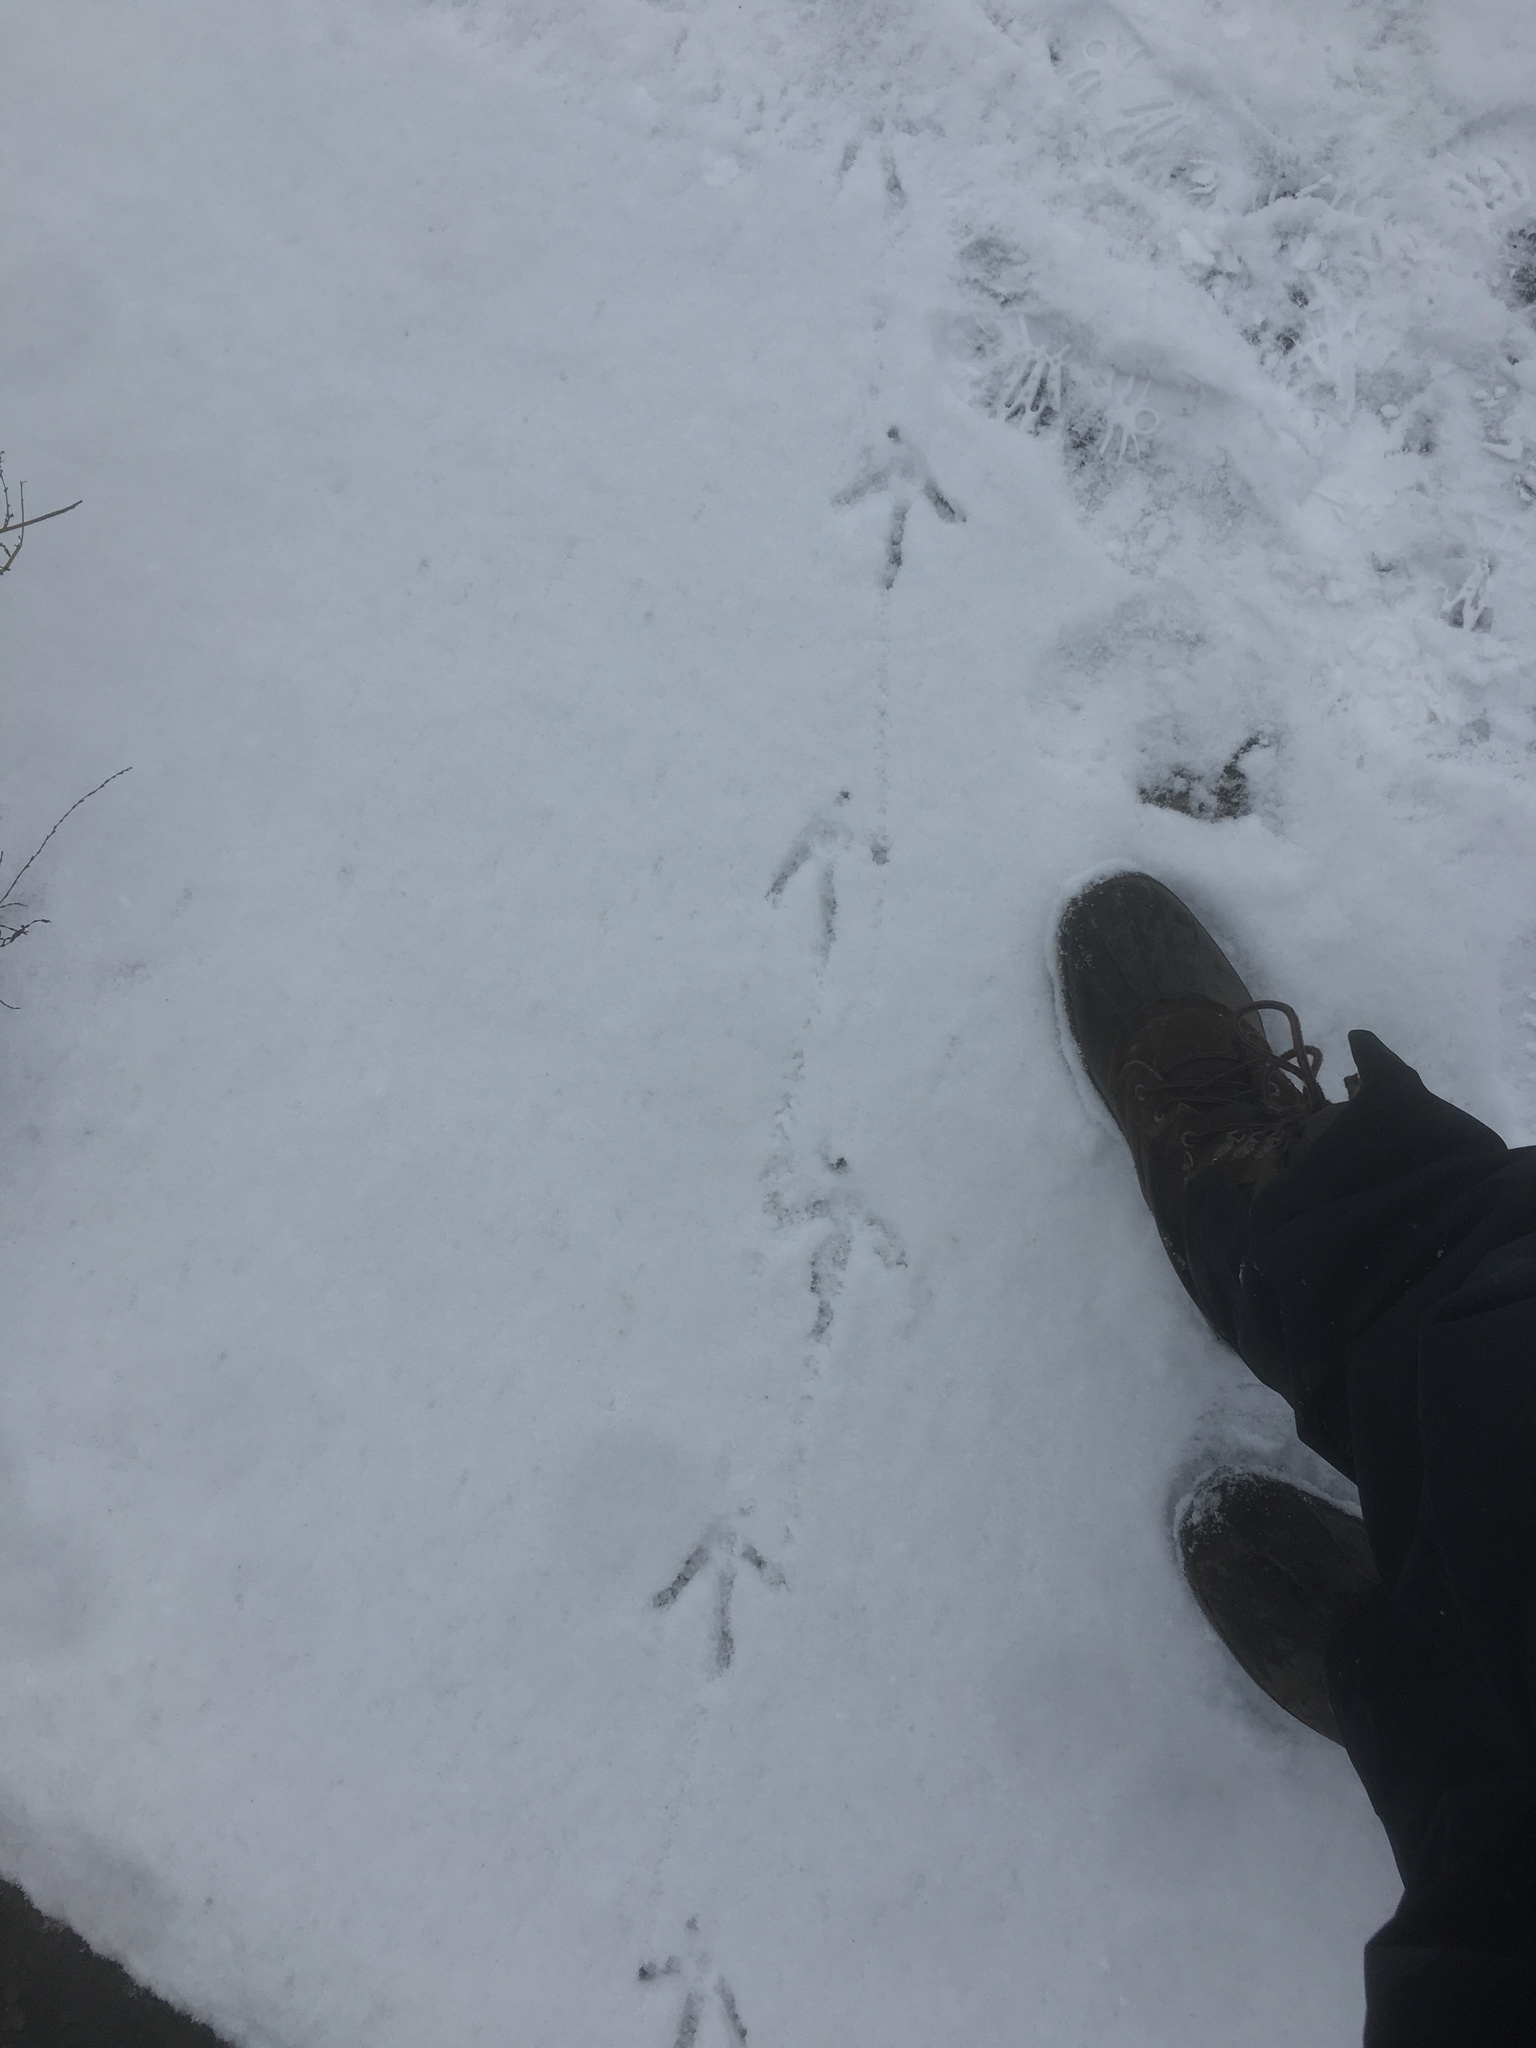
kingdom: Animalia
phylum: Chordata
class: Aves
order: Galliformes
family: Phasianidae
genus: Meleagris
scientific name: Meleagris gallopavo
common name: Wild turkey
